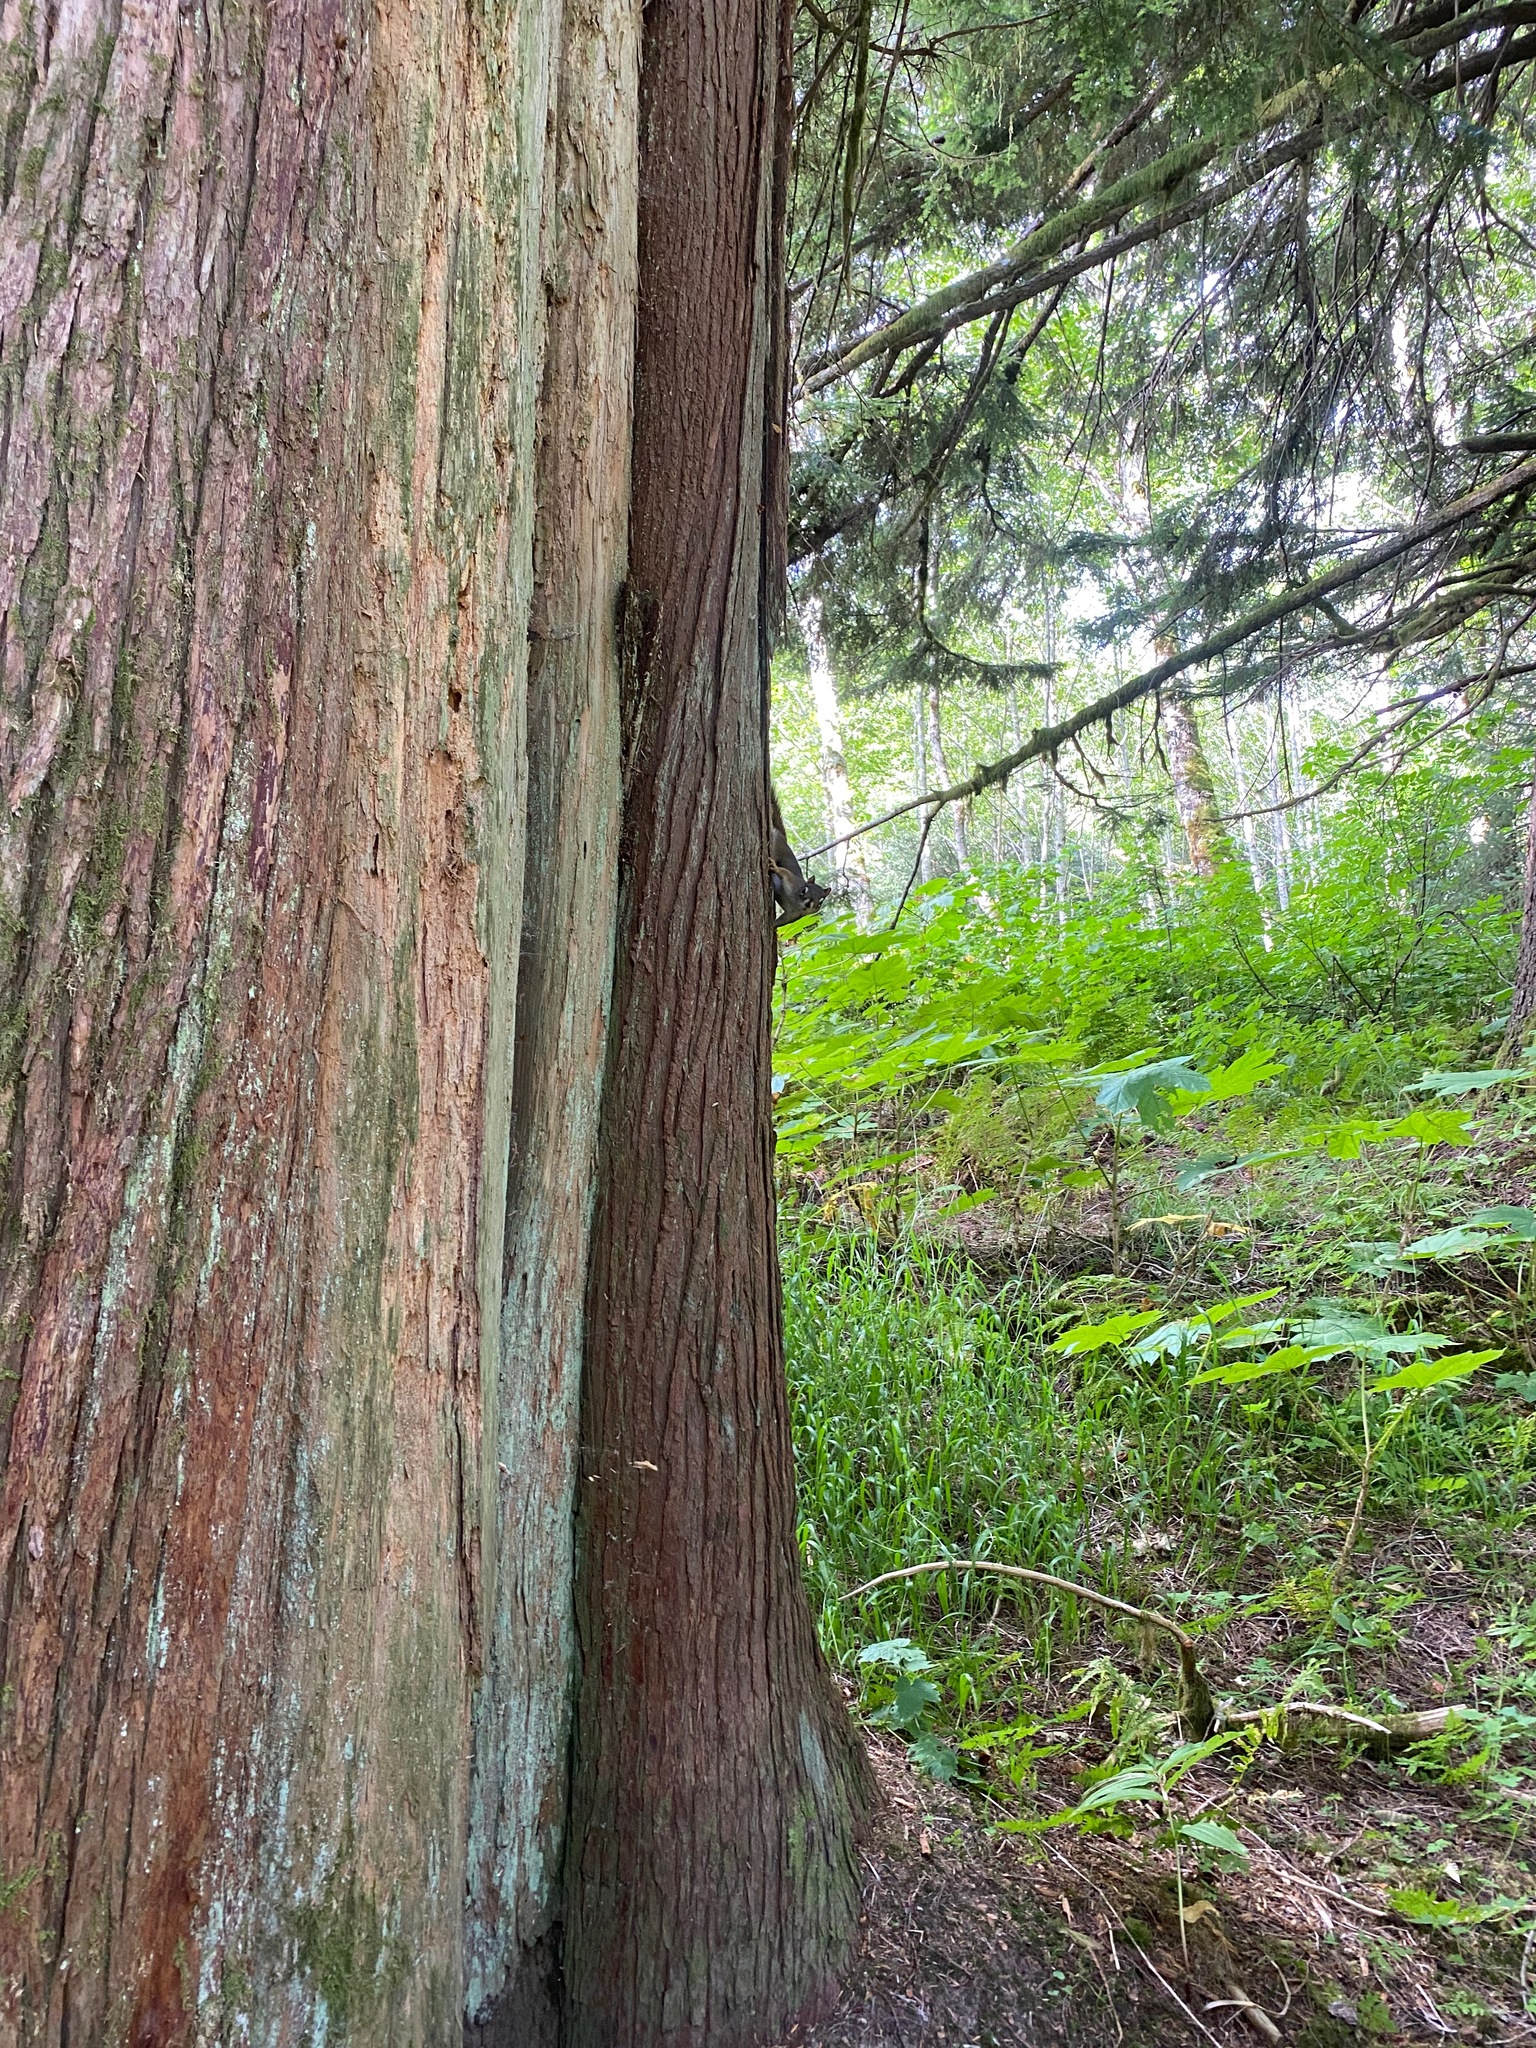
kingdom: Animalia
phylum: Chordata
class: Mammalia
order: Rodentia
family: Sciuridae
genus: Tamiasciurus
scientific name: Tamiasciurus hudsonicus
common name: Red squirrel
